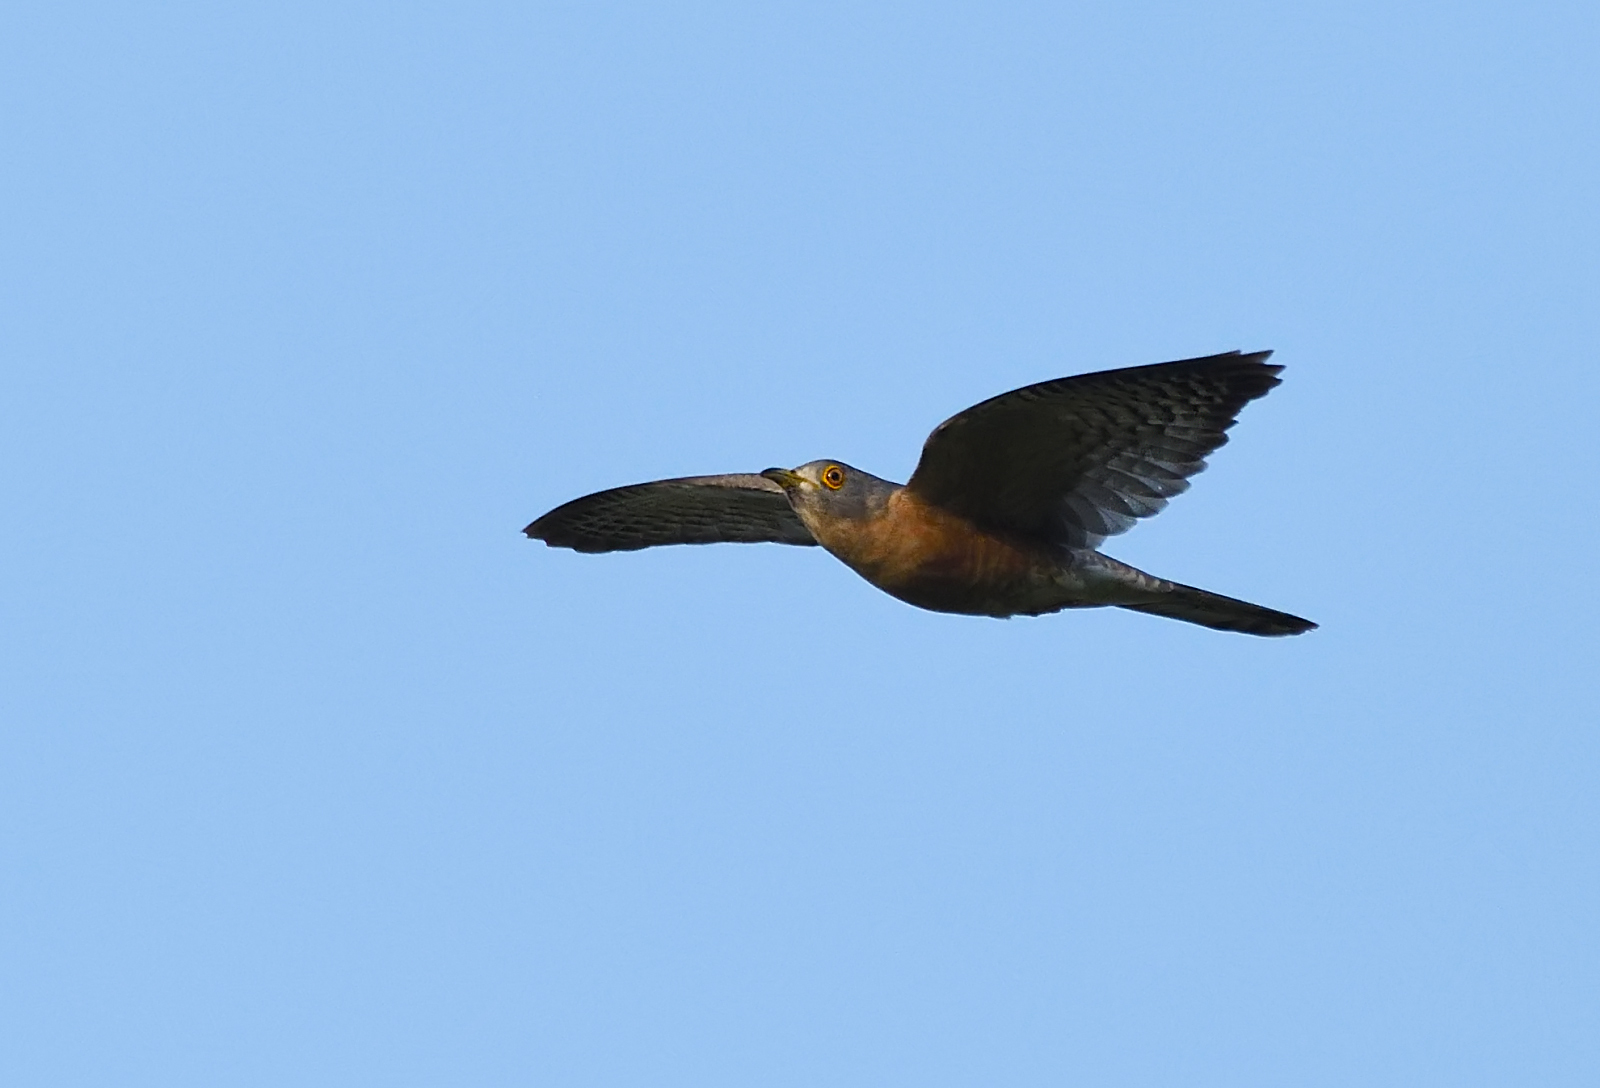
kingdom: Animalia
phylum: Chordata
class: Aves
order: Cuculiformes
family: Cuculidae
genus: Cuculus
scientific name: Cuculus varius
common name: Common hawk cuckoo
